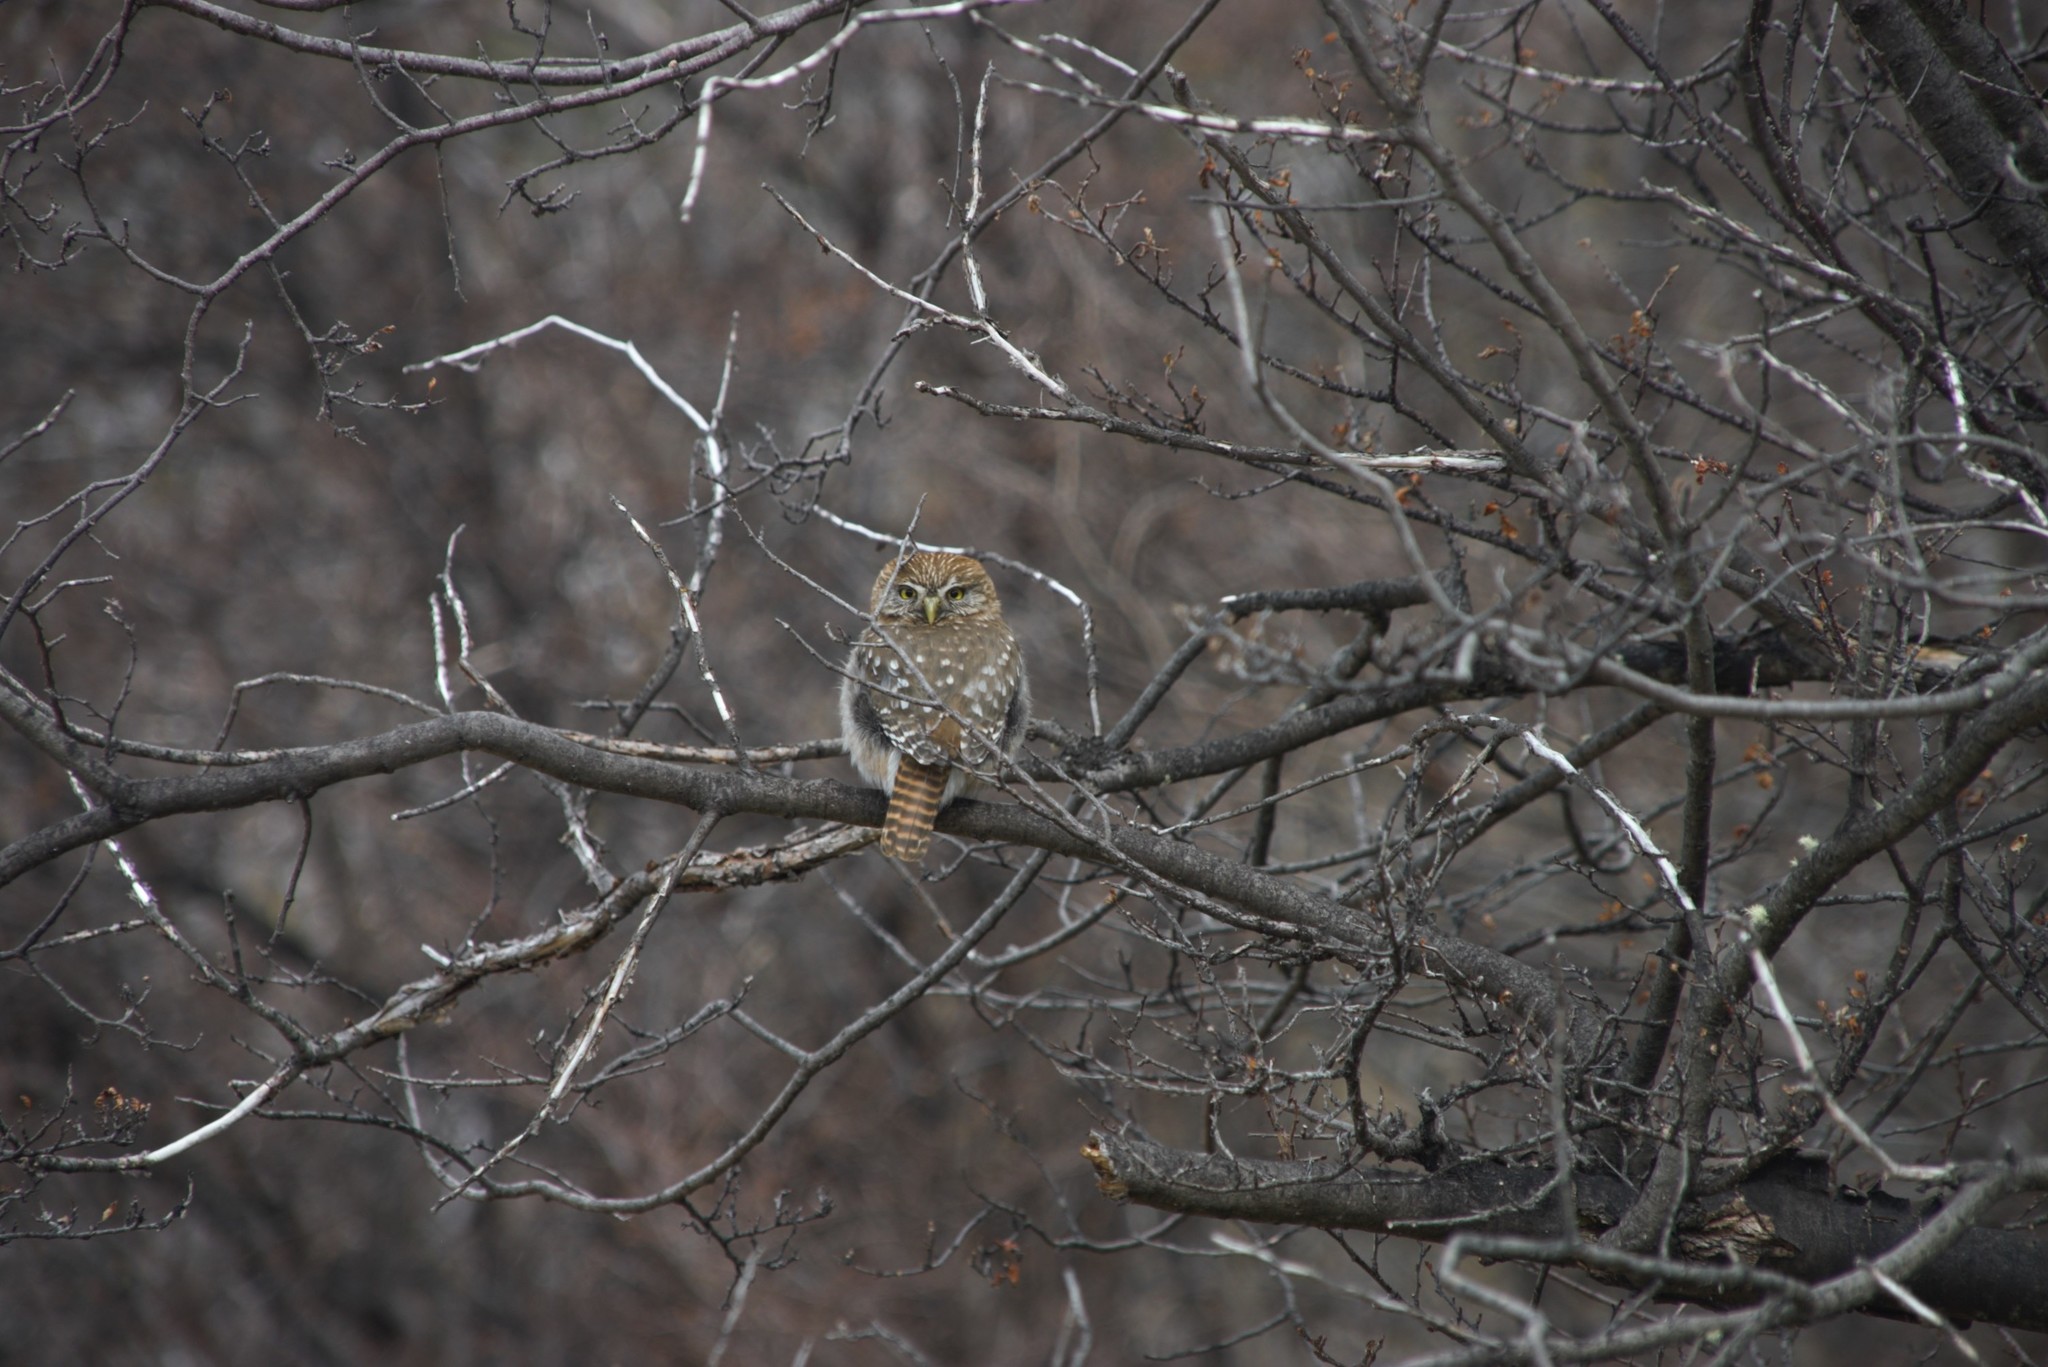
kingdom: Animalia
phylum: Chordata
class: Aves
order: Strigiformes
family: Strigidae
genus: Glaucidium
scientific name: Glaucidium nana
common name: Austral pygmy-owl
